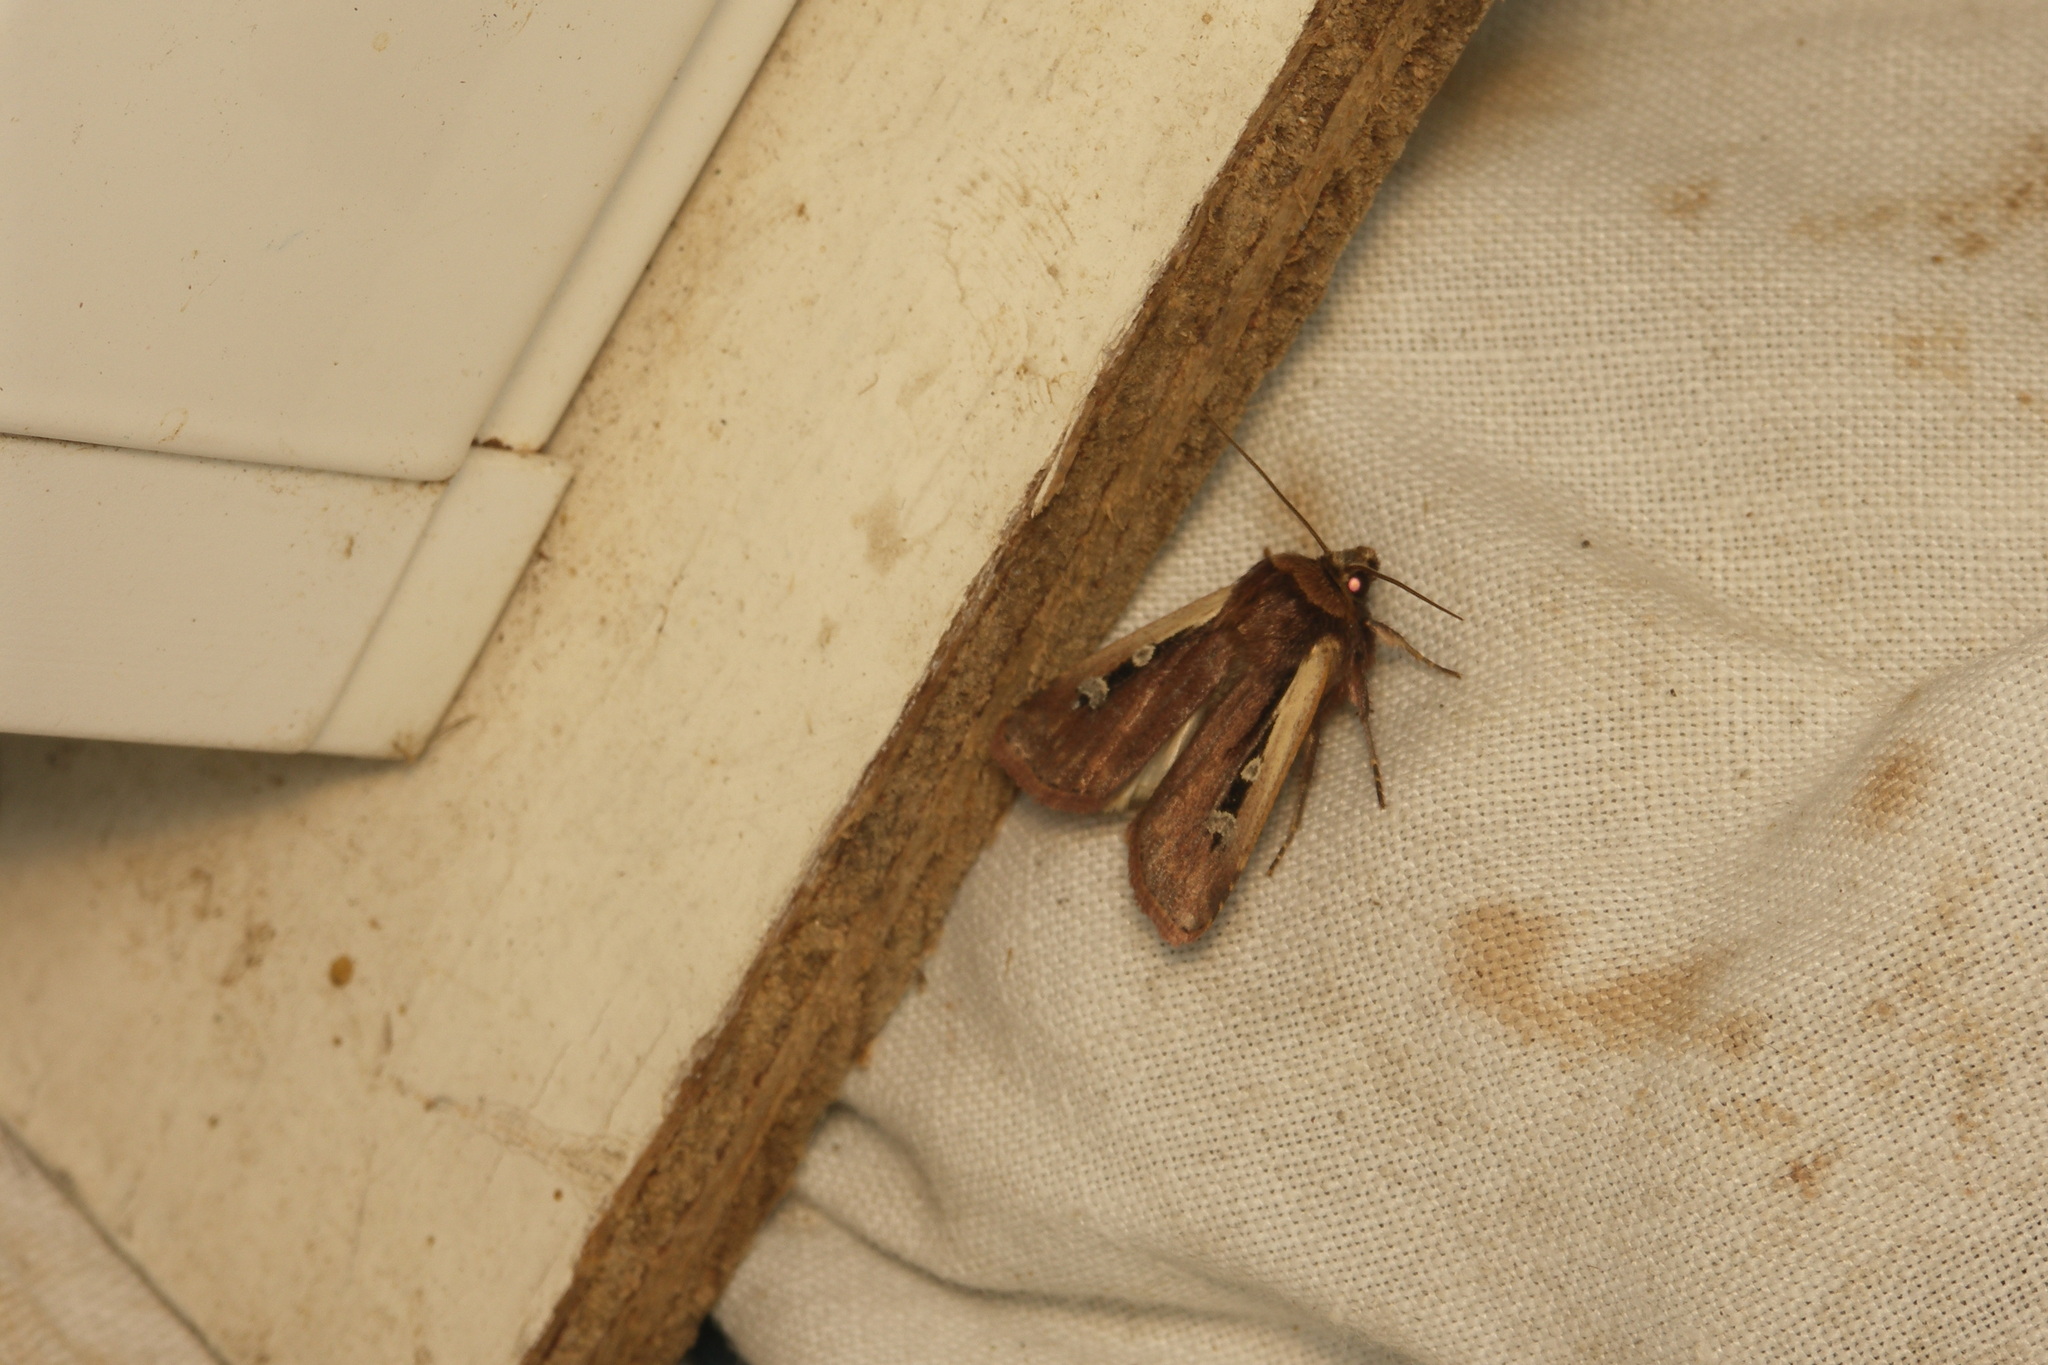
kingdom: Animalia
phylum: Arthropoda
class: Insecta
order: Lepidoptera
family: Noctuidae
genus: Ochropleura
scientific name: Ochropleura plecta
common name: Flame shoulder
